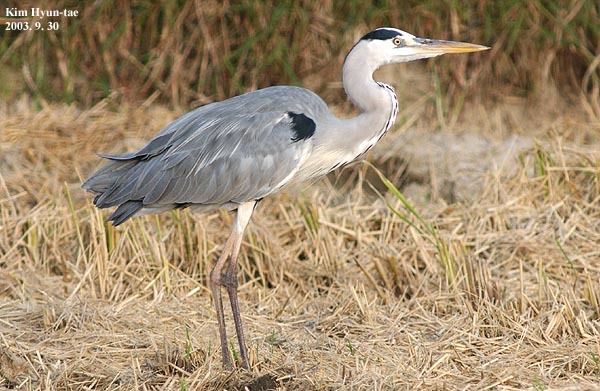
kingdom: Animalia
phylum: Chordata
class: Aves
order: Pelecaniformes
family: Ardeidae
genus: Ardea
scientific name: Ardea cinerea
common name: Grey heron
